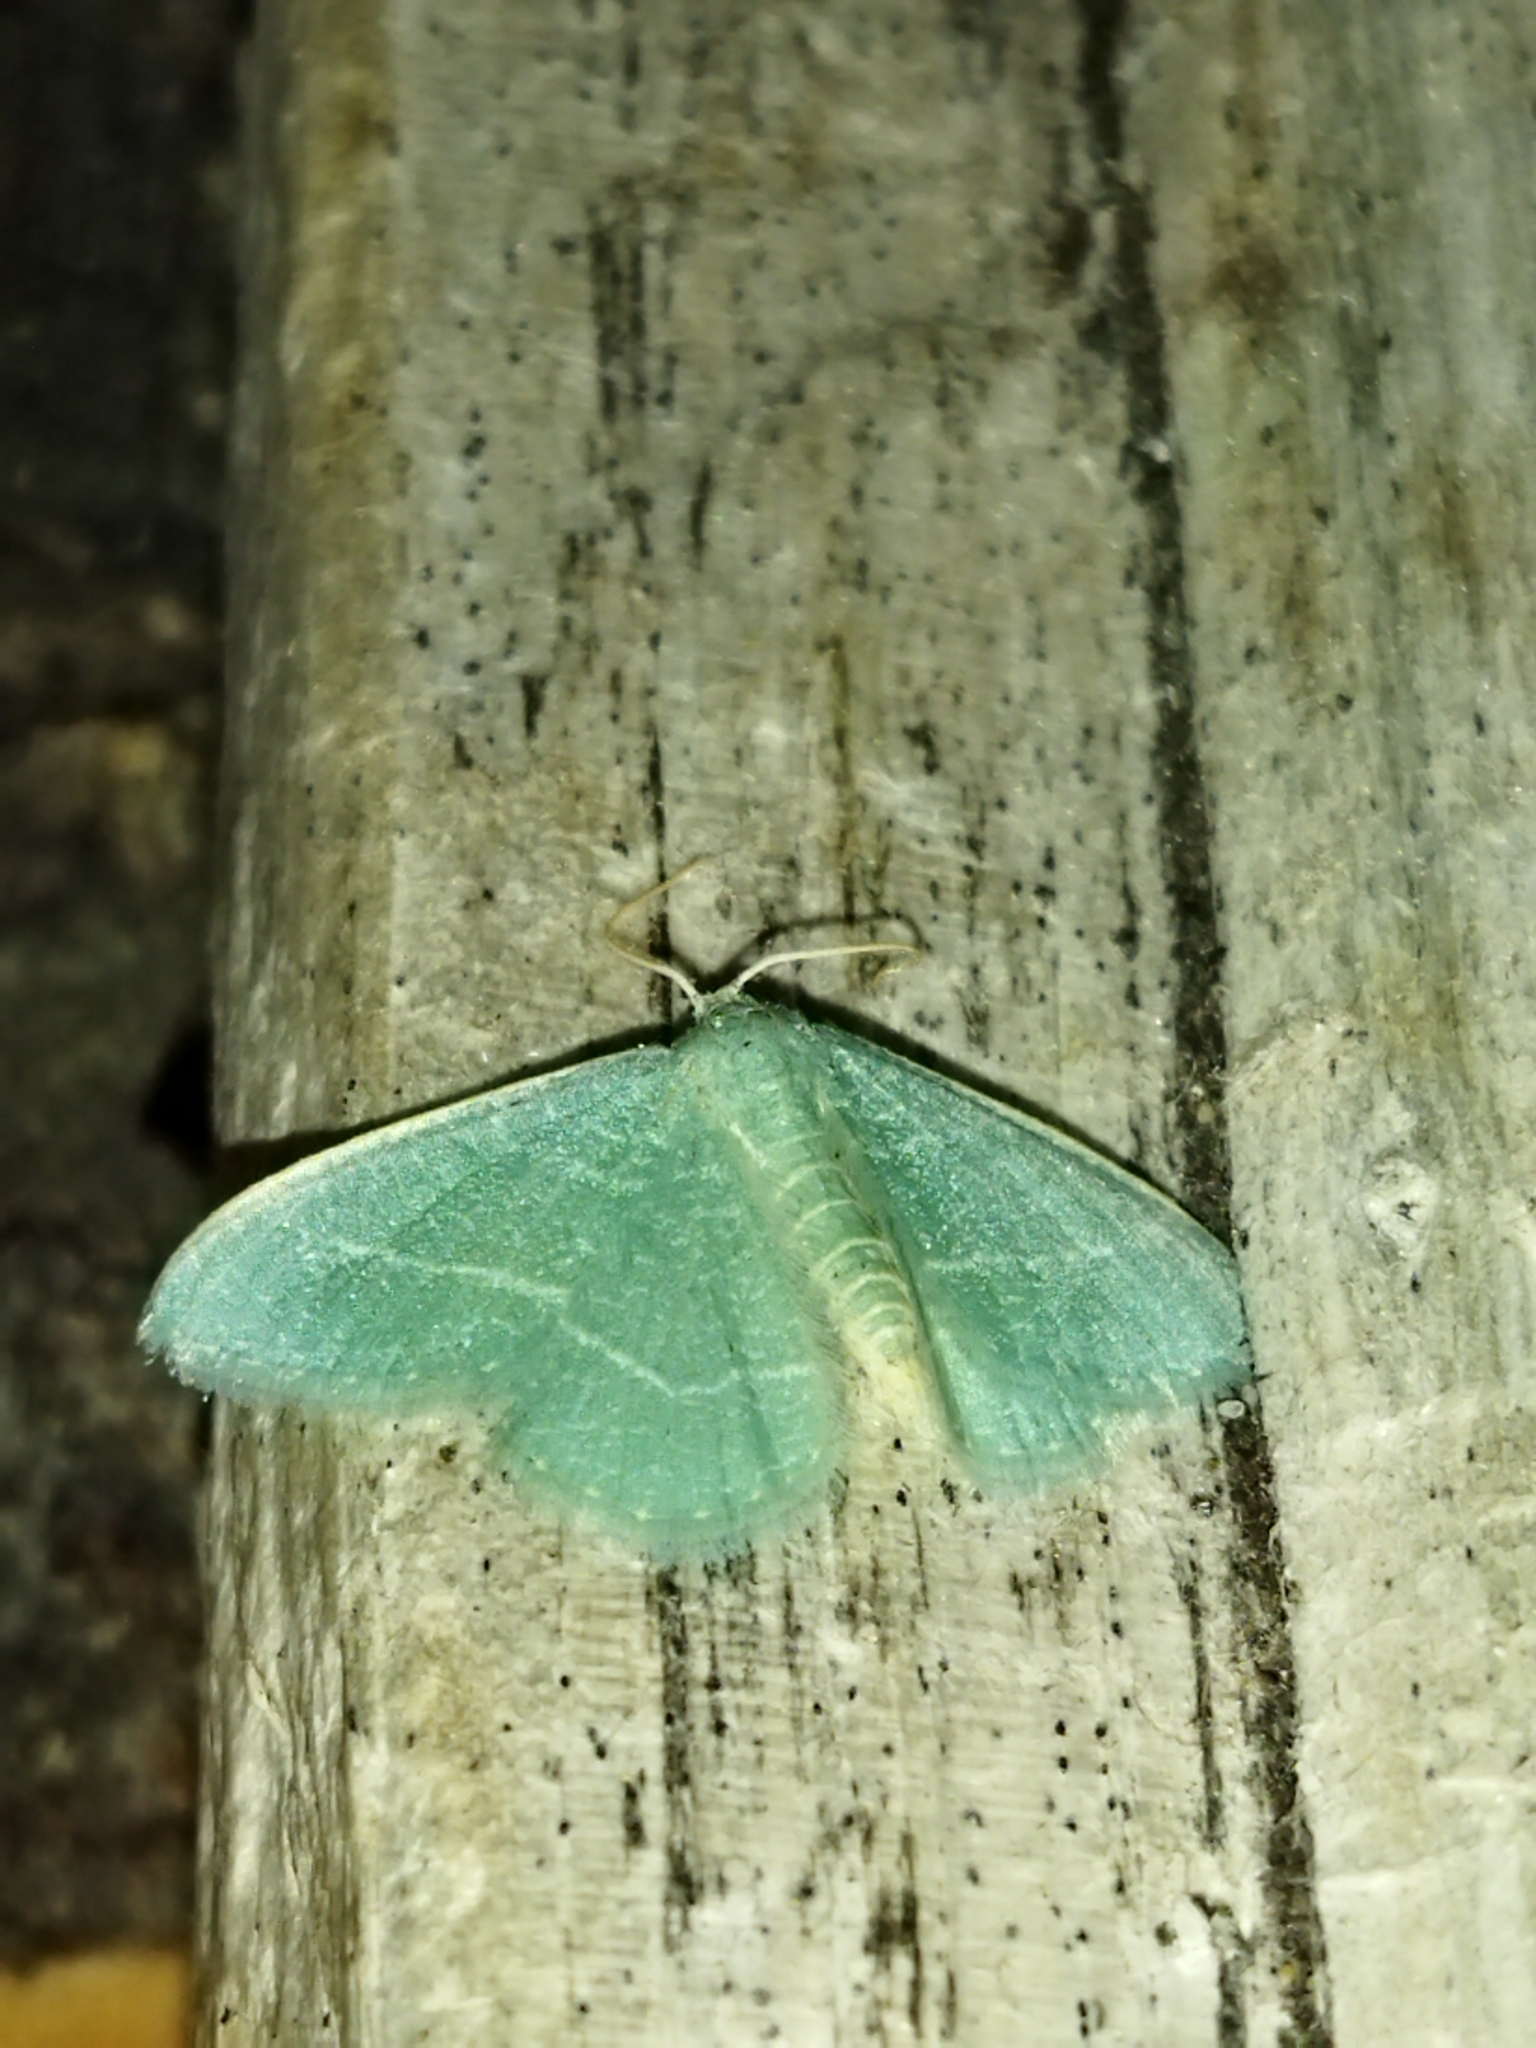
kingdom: Animalia
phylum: Arthropoda
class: Insecta
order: Lepidoptera
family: Geometridae
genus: Chlorissa
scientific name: Chlorissa etruscaria
